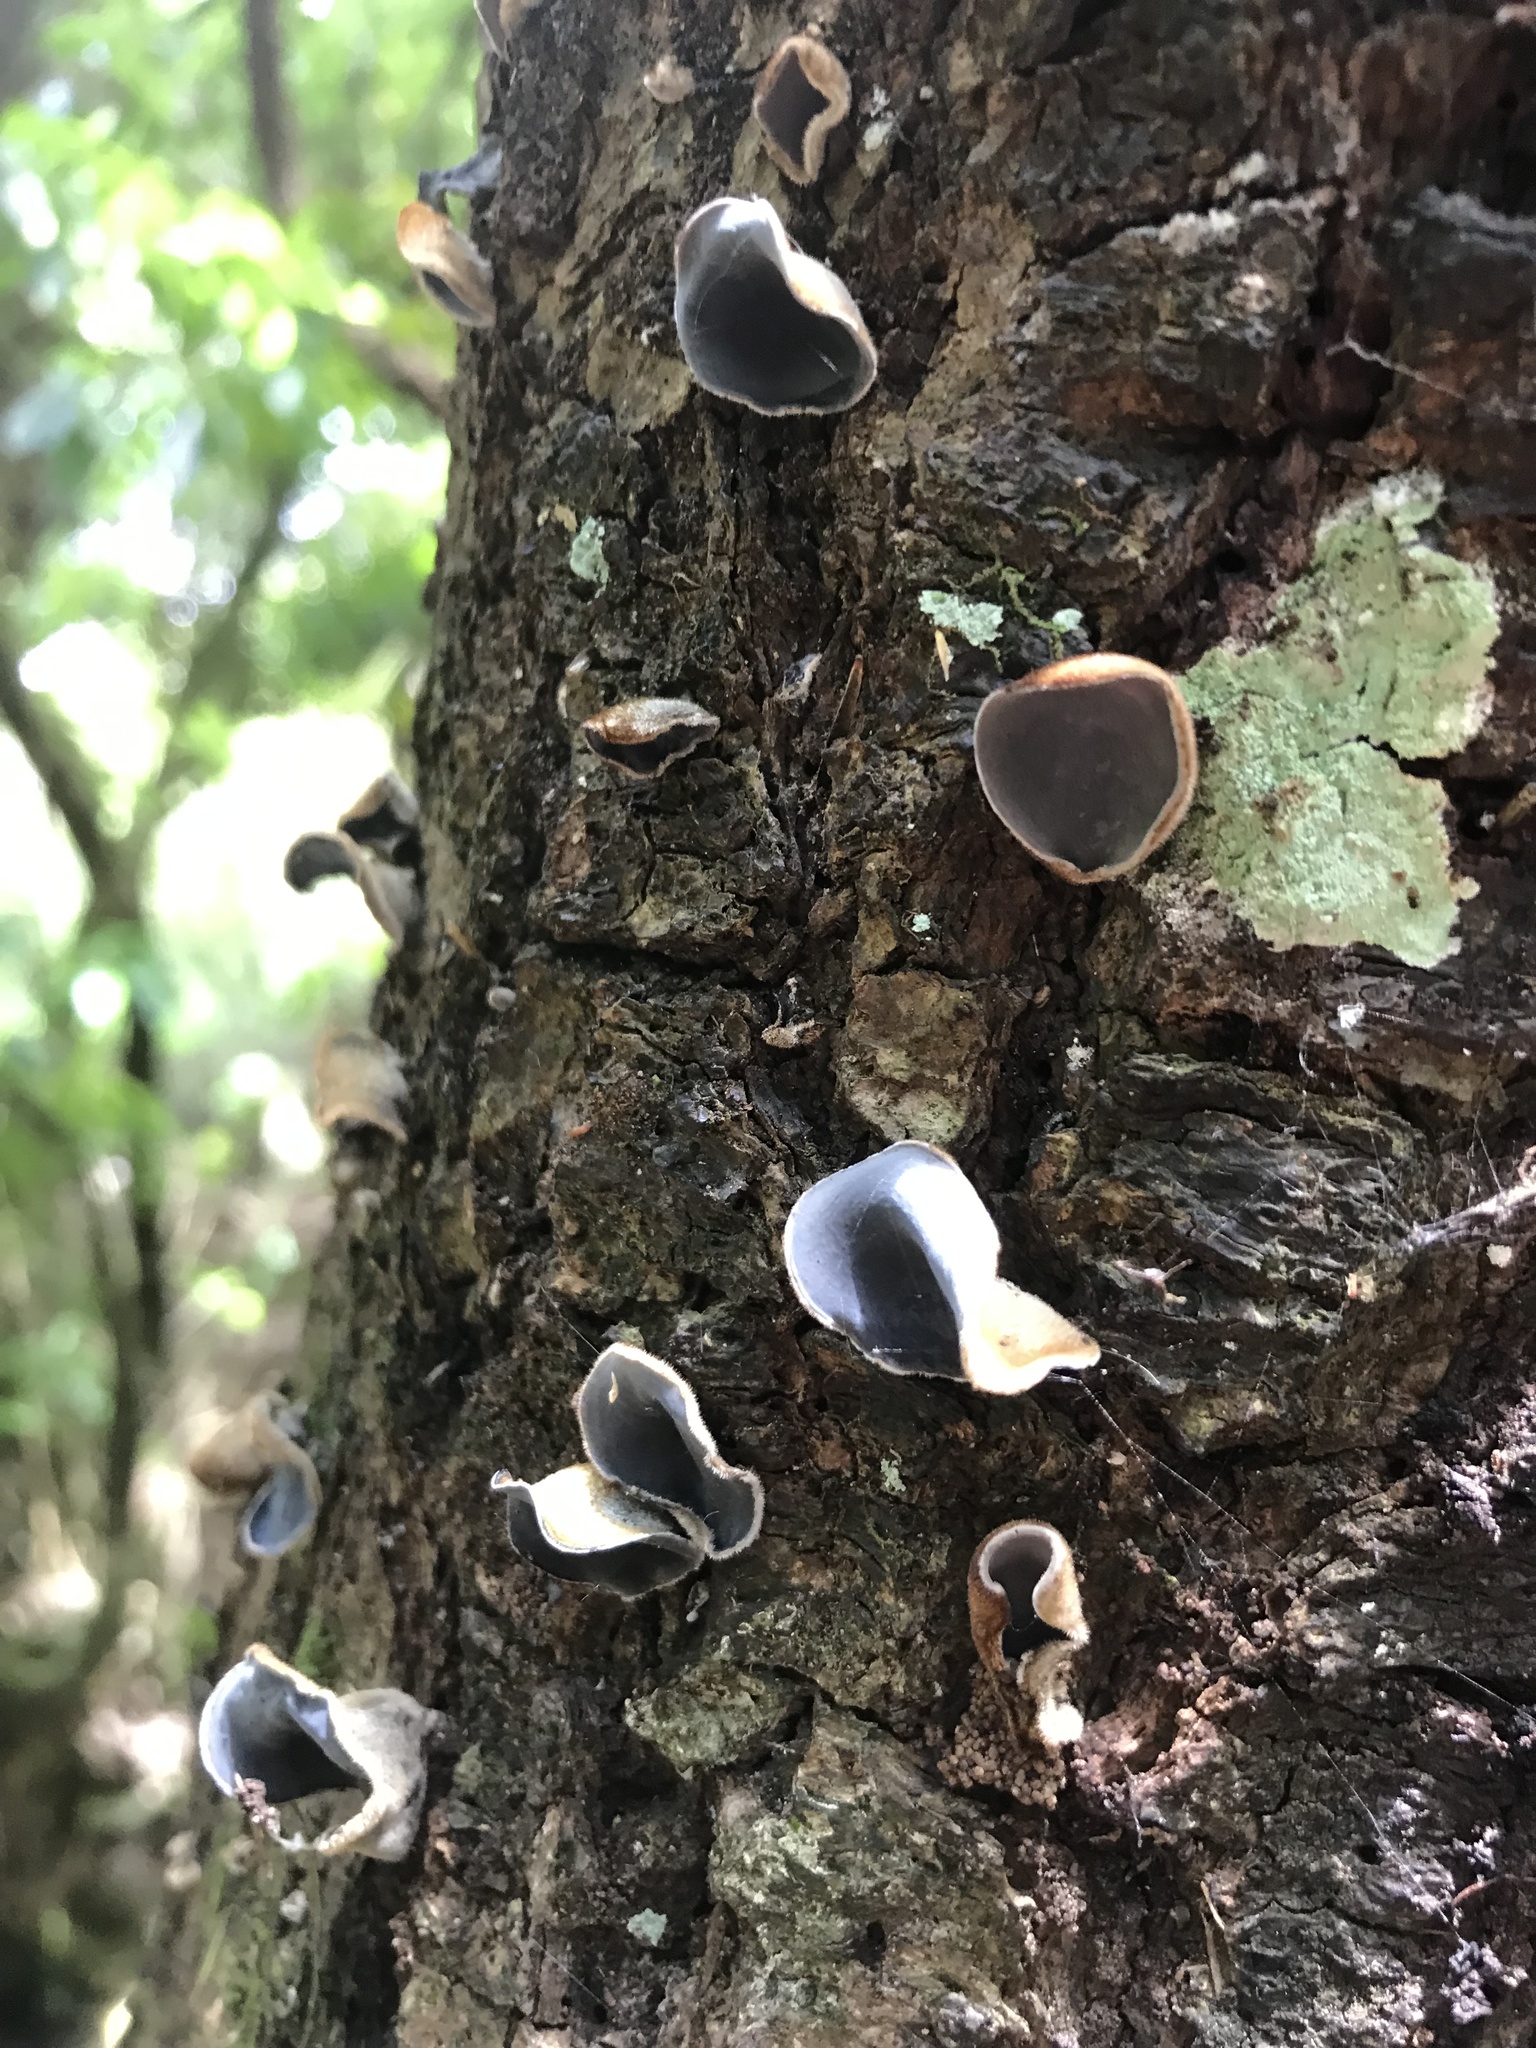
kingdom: Fungi
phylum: Basidiomycota
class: Agaricomycetes
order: Auriculariales
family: Auriculariaceae
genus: Auricularia
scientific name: Auricularia cornea
